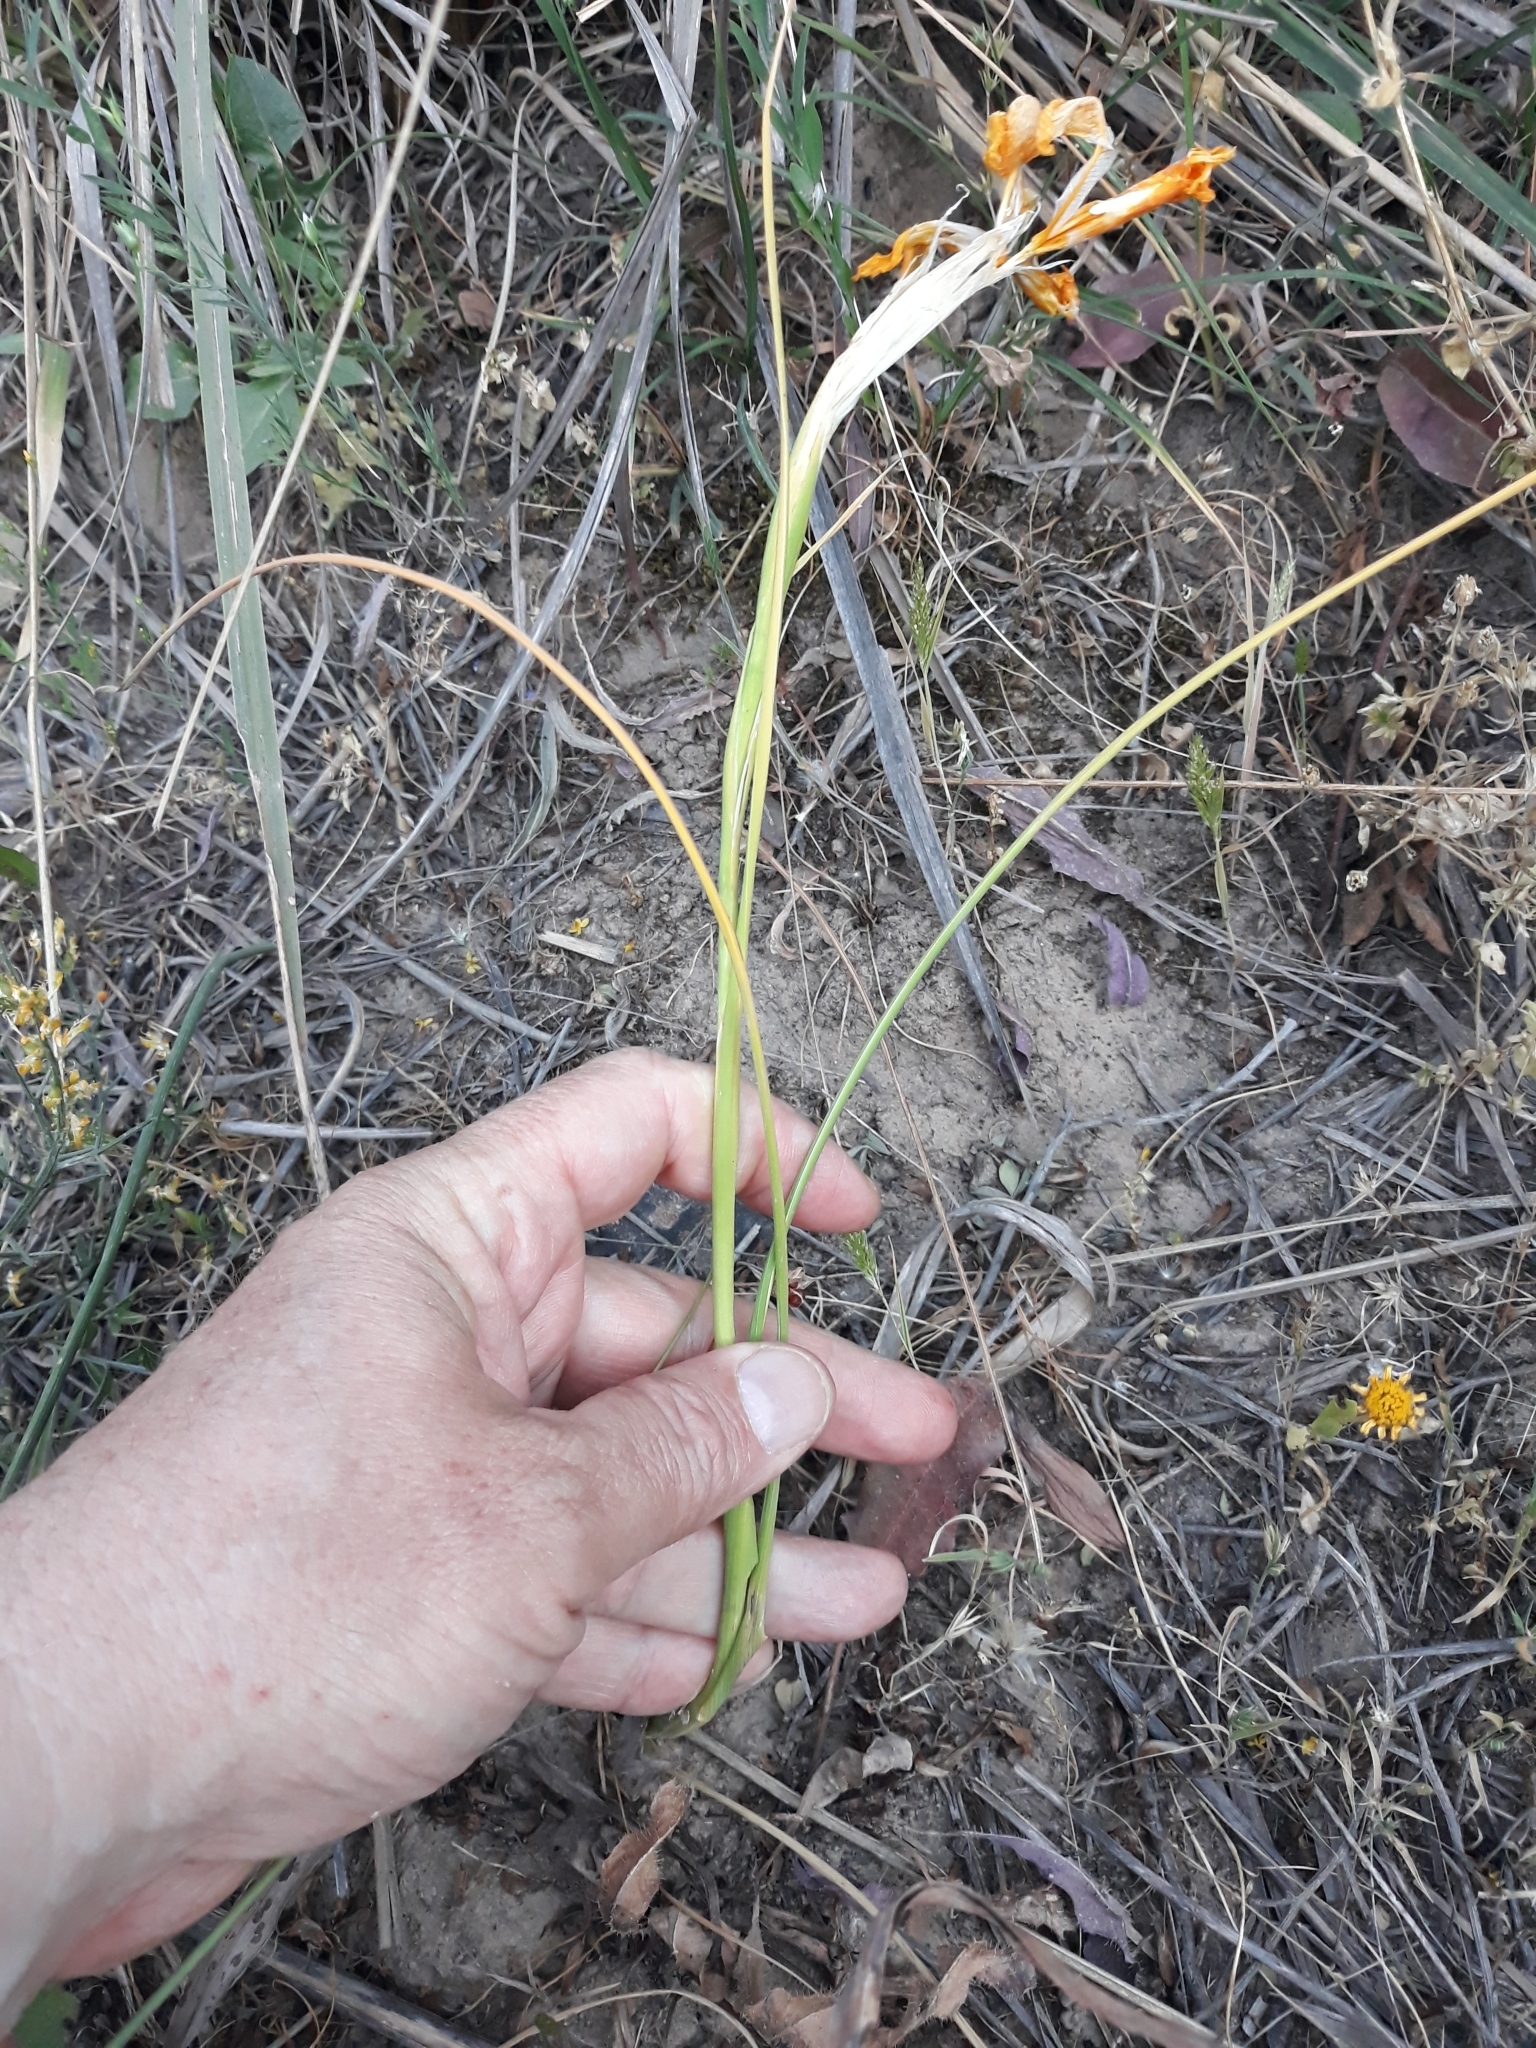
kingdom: Plantae
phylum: Tracheophyta
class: Liliopsida
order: Asparagales
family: Iridaceae
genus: Iris
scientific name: Iris juncea
